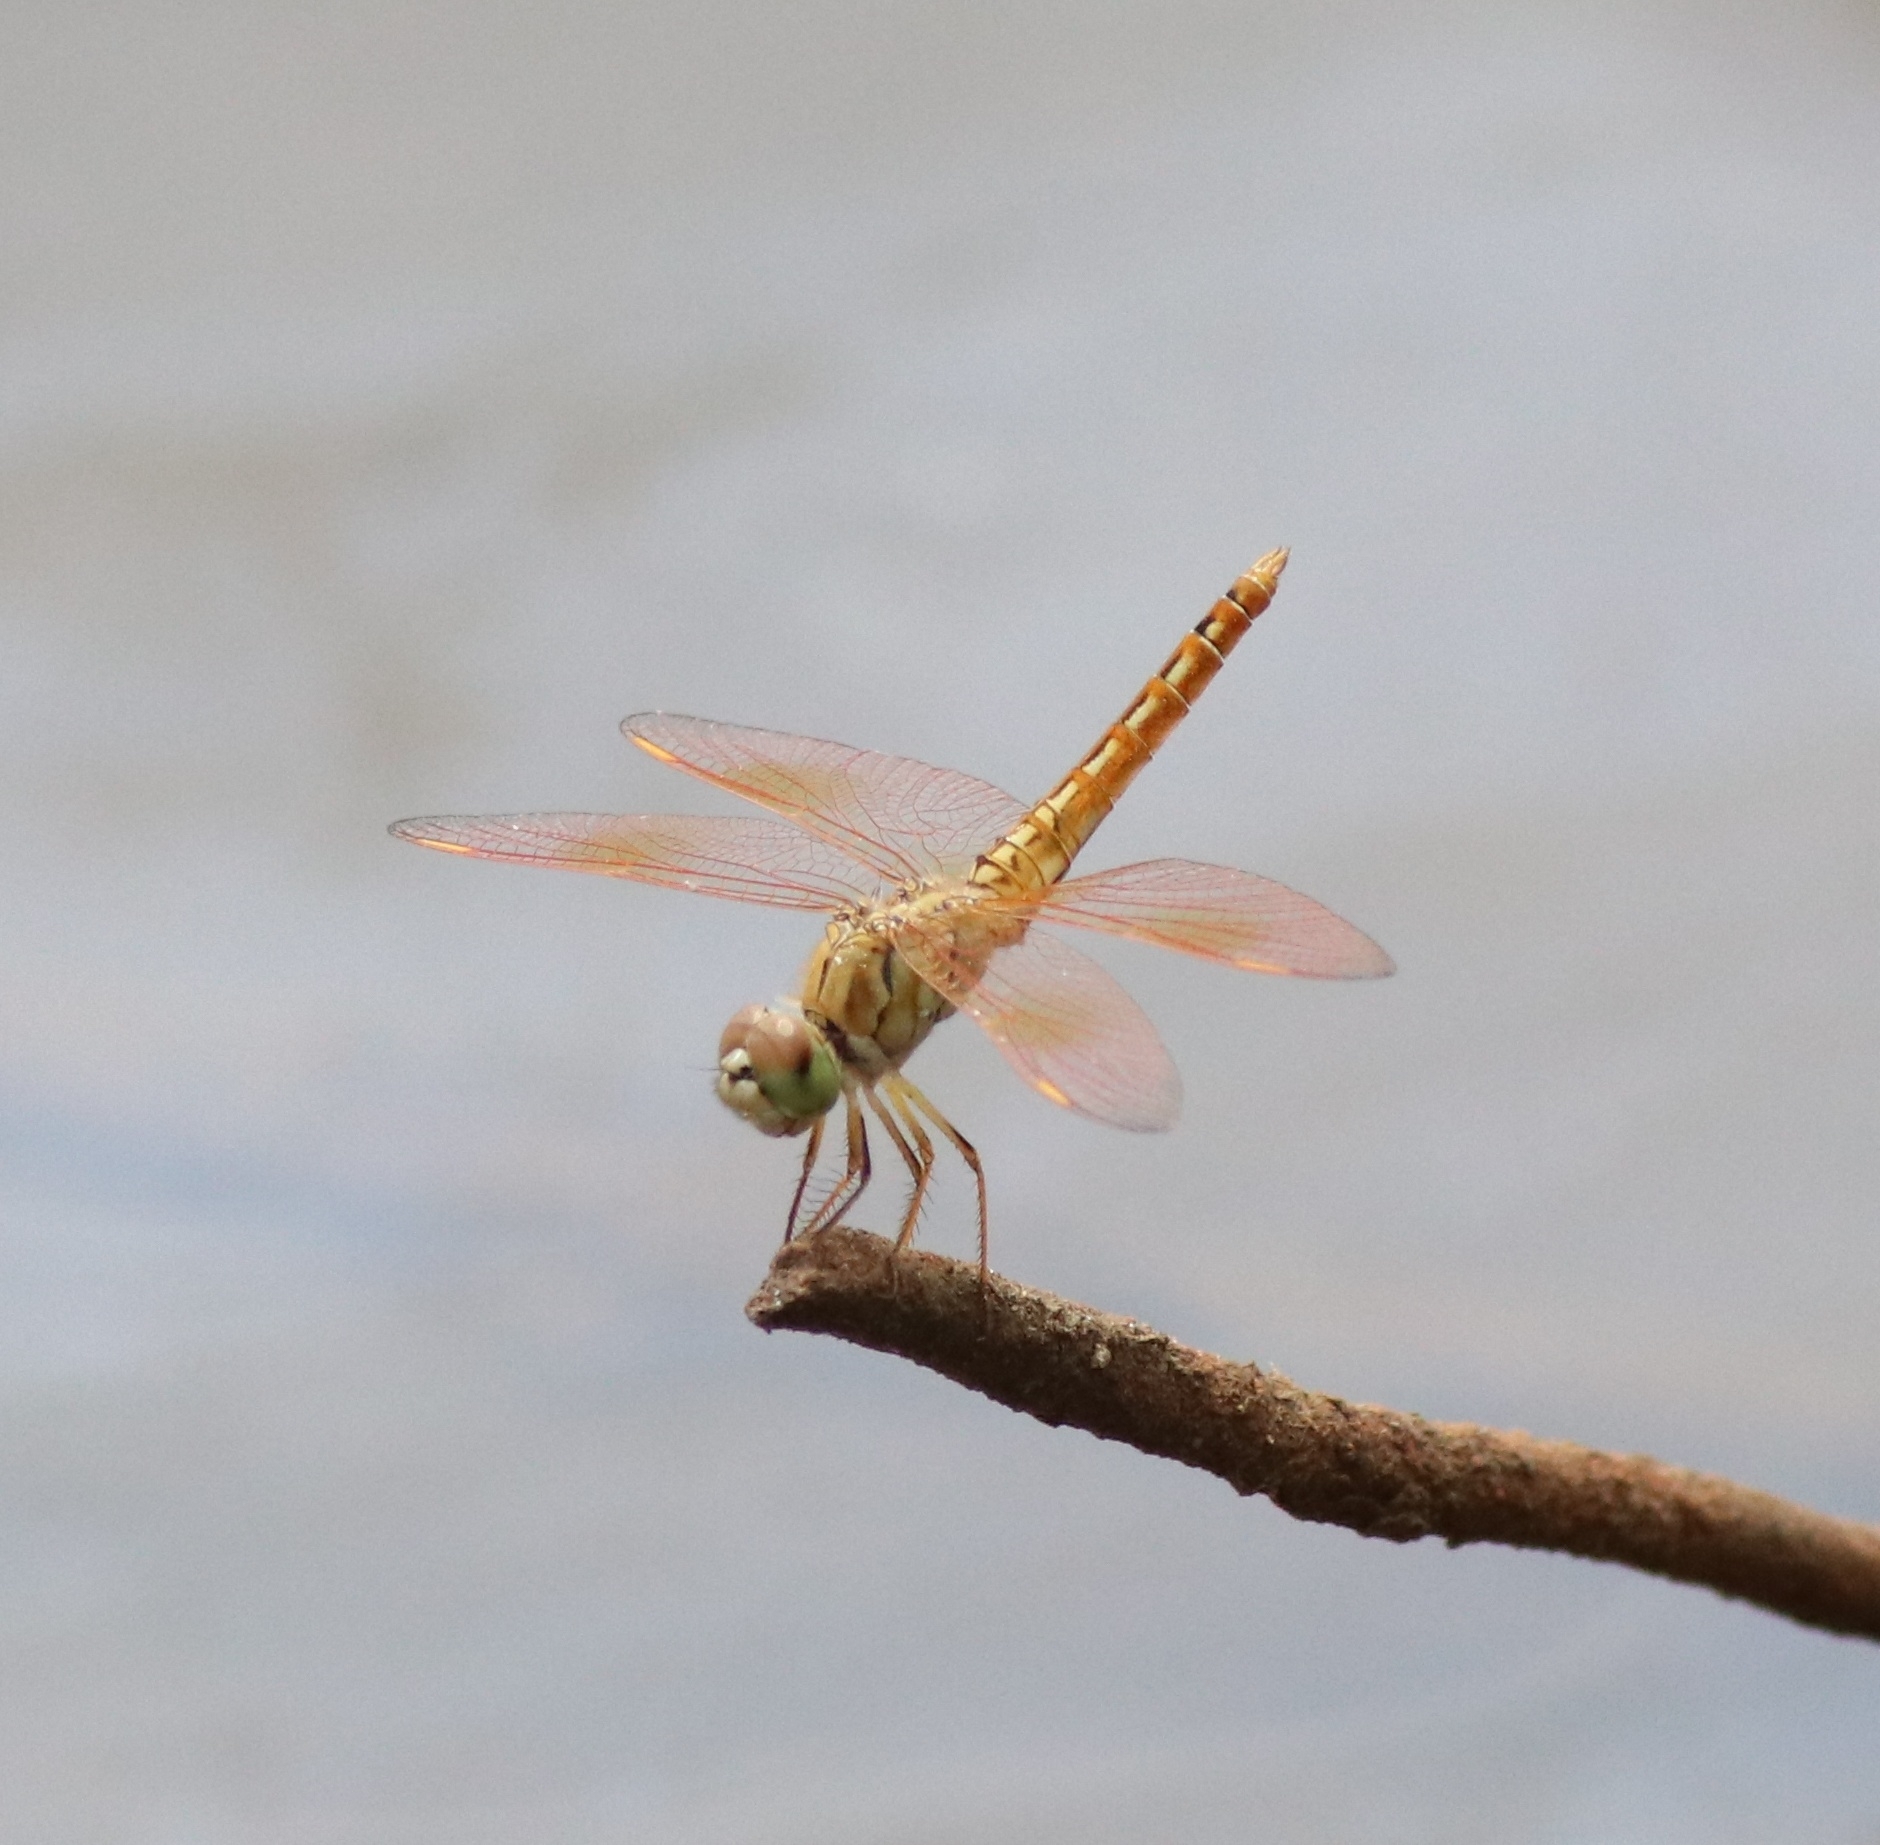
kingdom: Animalia
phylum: Arthropoda
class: Insecta
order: Odonata
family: Libellulidae
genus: Brachythemis
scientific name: Brachythemis contaminata
